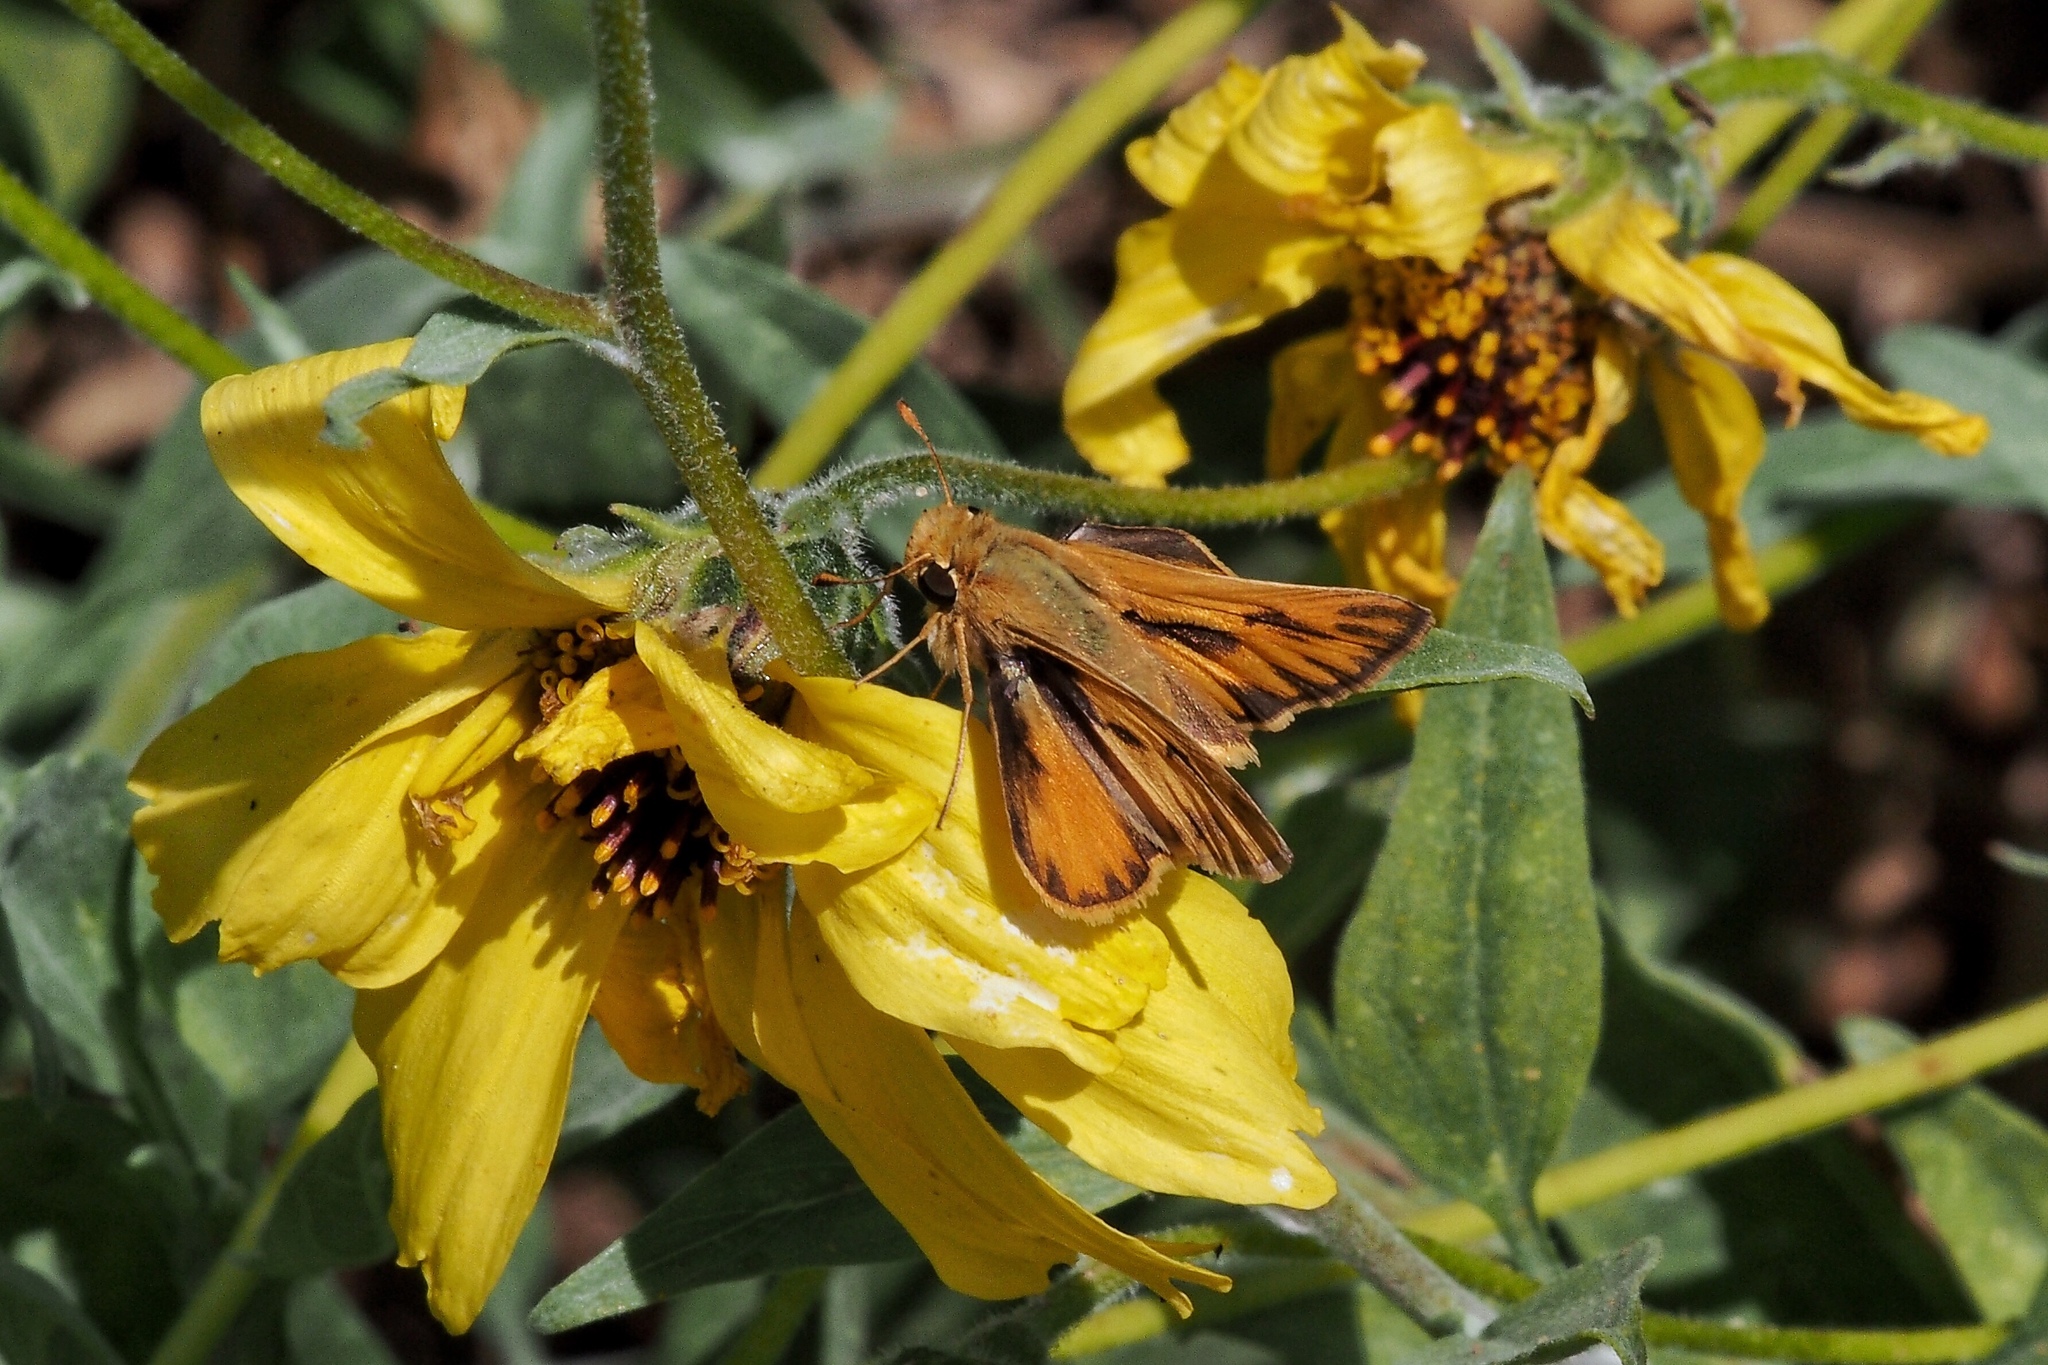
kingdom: Animalia
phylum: Arthropoda
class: Insecta
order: Lepidoptera
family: Hesperiidae
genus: Hylephila
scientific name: Hylephila phyleus
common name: Fiery skipper
